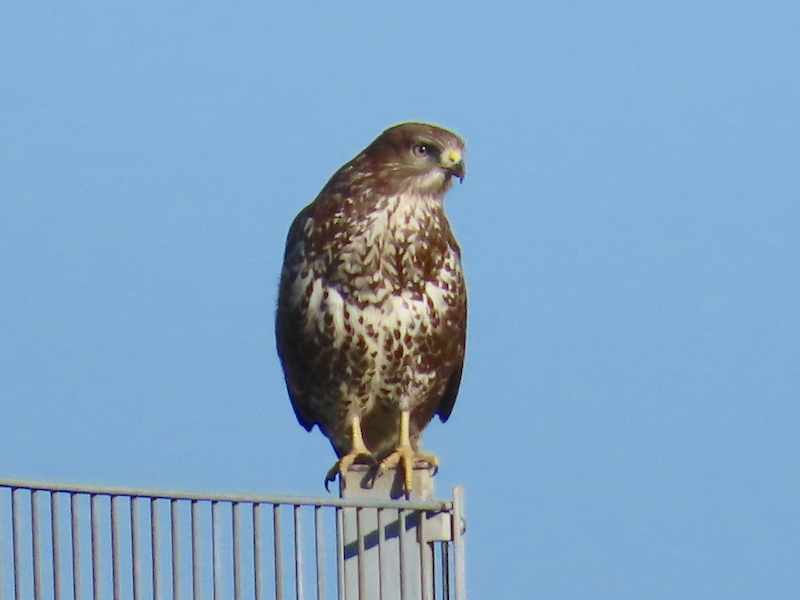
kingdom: Animalia
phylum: Chordata
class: Aves
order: Accipitriformes
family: Accipitridae
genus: Buteo
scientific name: Buteo buteo
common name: Common buzzard
